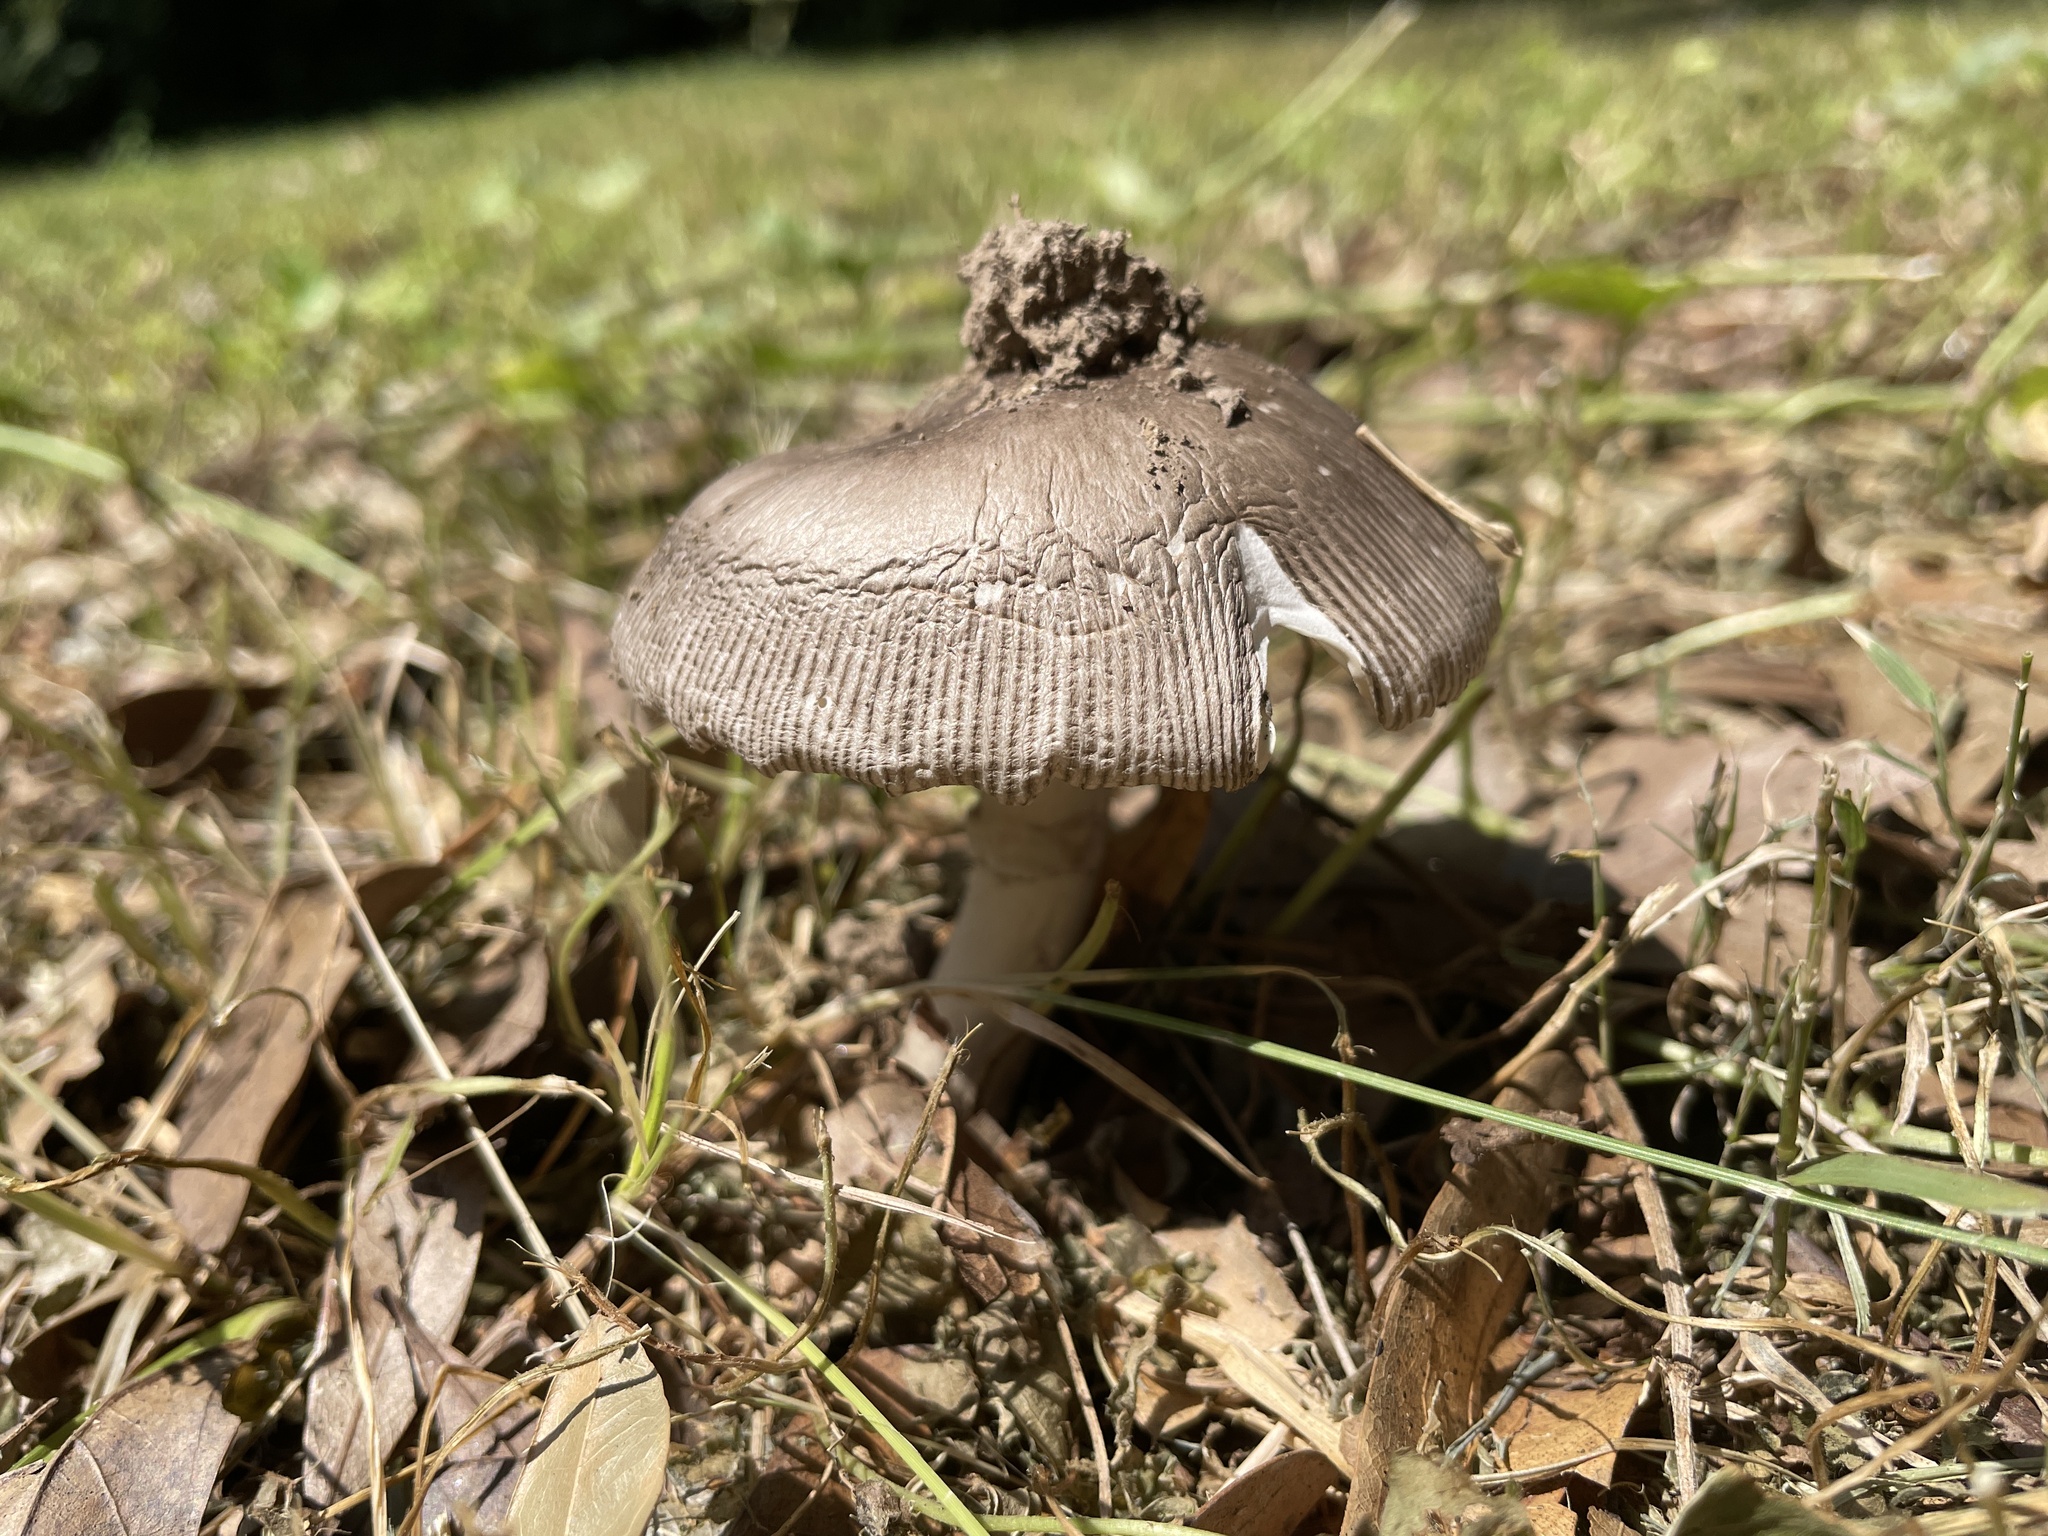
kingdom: Fungi
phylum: Basidiomycota
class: Agaricomycetes
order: Agaricales
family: Amanitaceae
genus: Amanita
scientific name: Amanita vaginata
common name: Grisette
